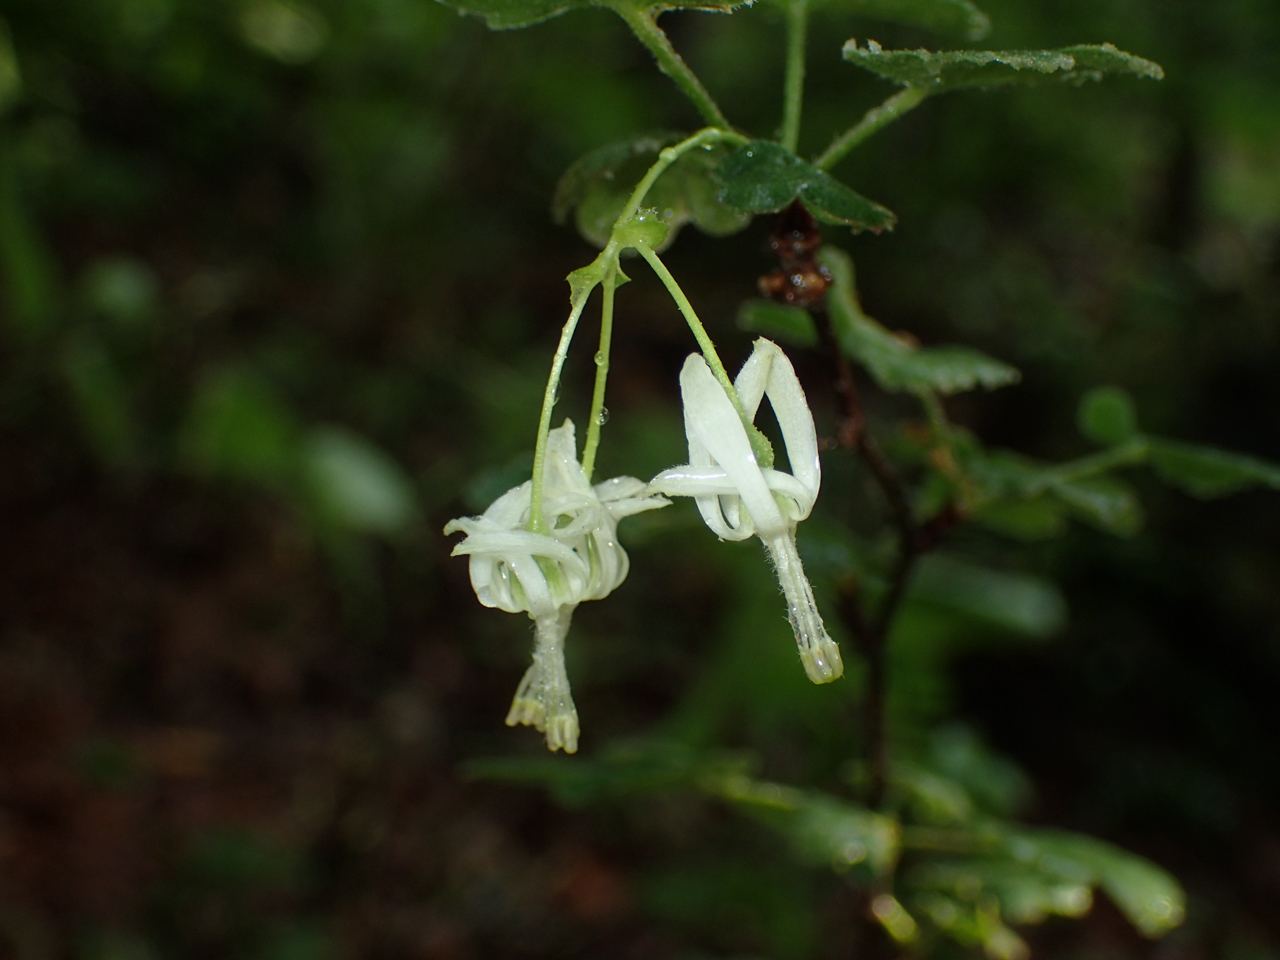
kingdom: Plantae
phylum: Tracheophyta
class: Magnoliopsida
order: Saxifragales
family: Grossulariaceae
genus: Ribes
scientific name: Ribes curvatum
